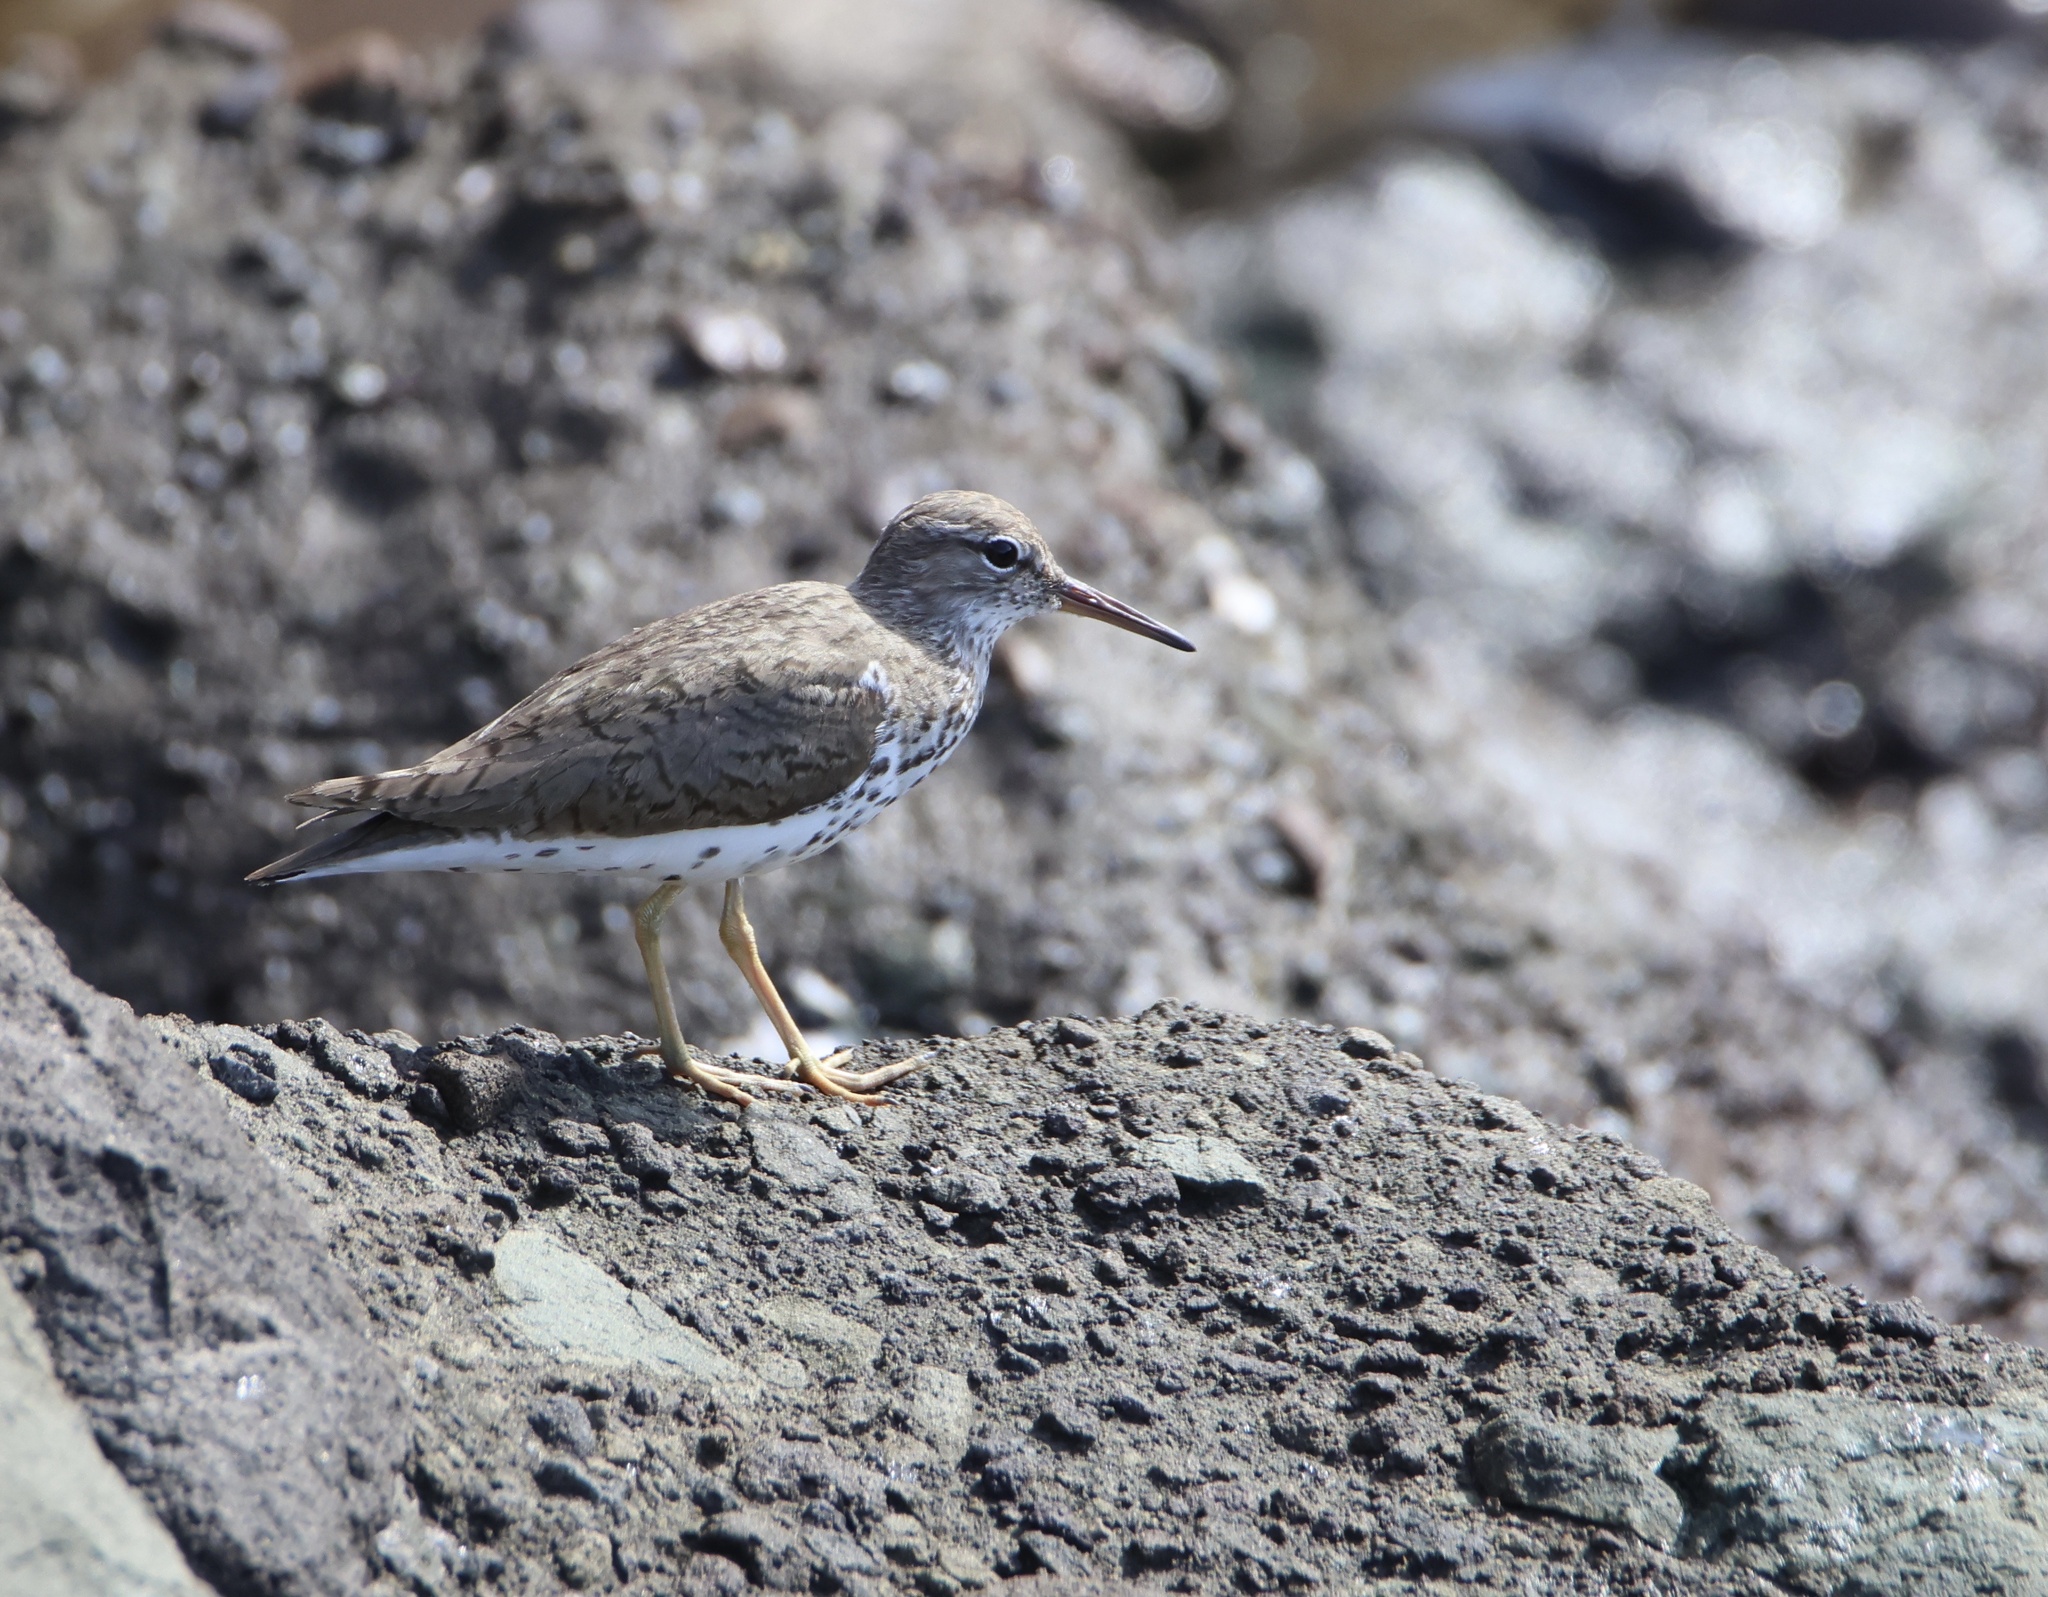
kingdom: Animalia
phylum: Chordata
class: Aves
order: Charadriiformes
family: Scolopacidae
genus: Actitis
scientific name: Actitis macularius
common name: Spotted sandpiper
